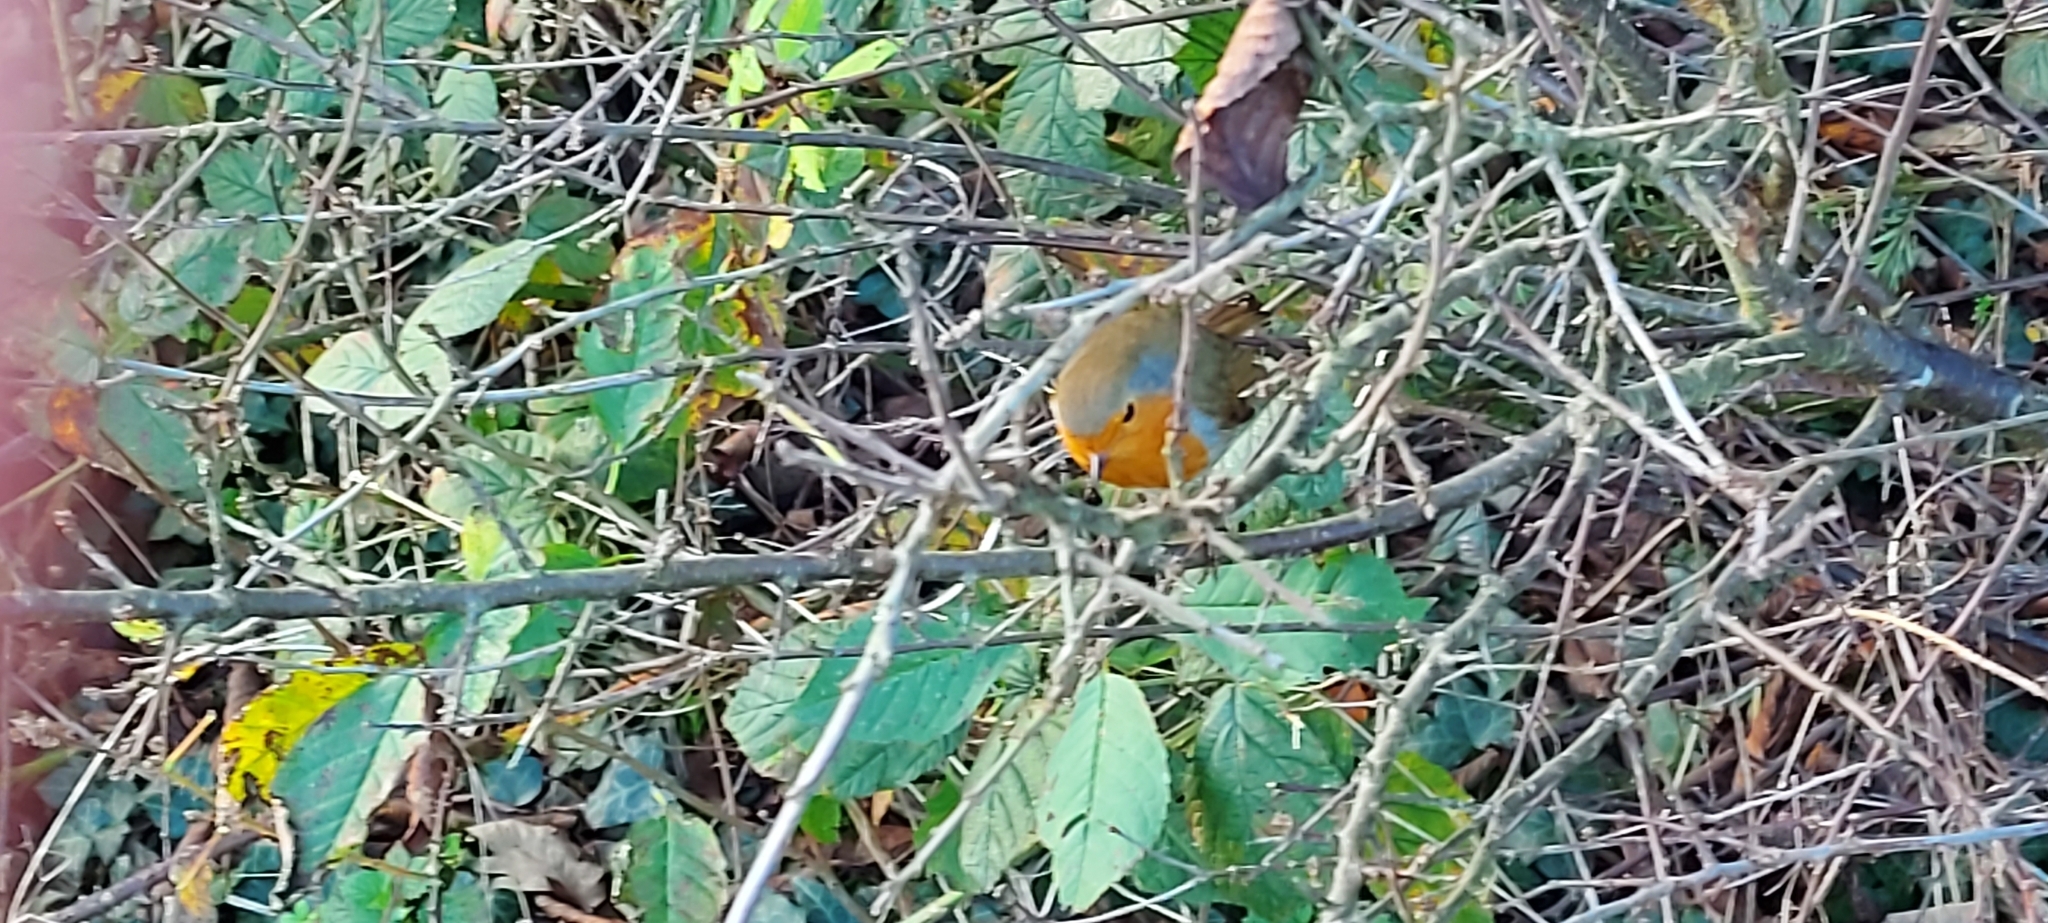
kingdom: Animalia
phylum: Chordata
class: Aves
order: Passeriformes
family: Muscicapidae
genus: Erithacus
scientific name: Erithacus rubecula
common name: European robin
